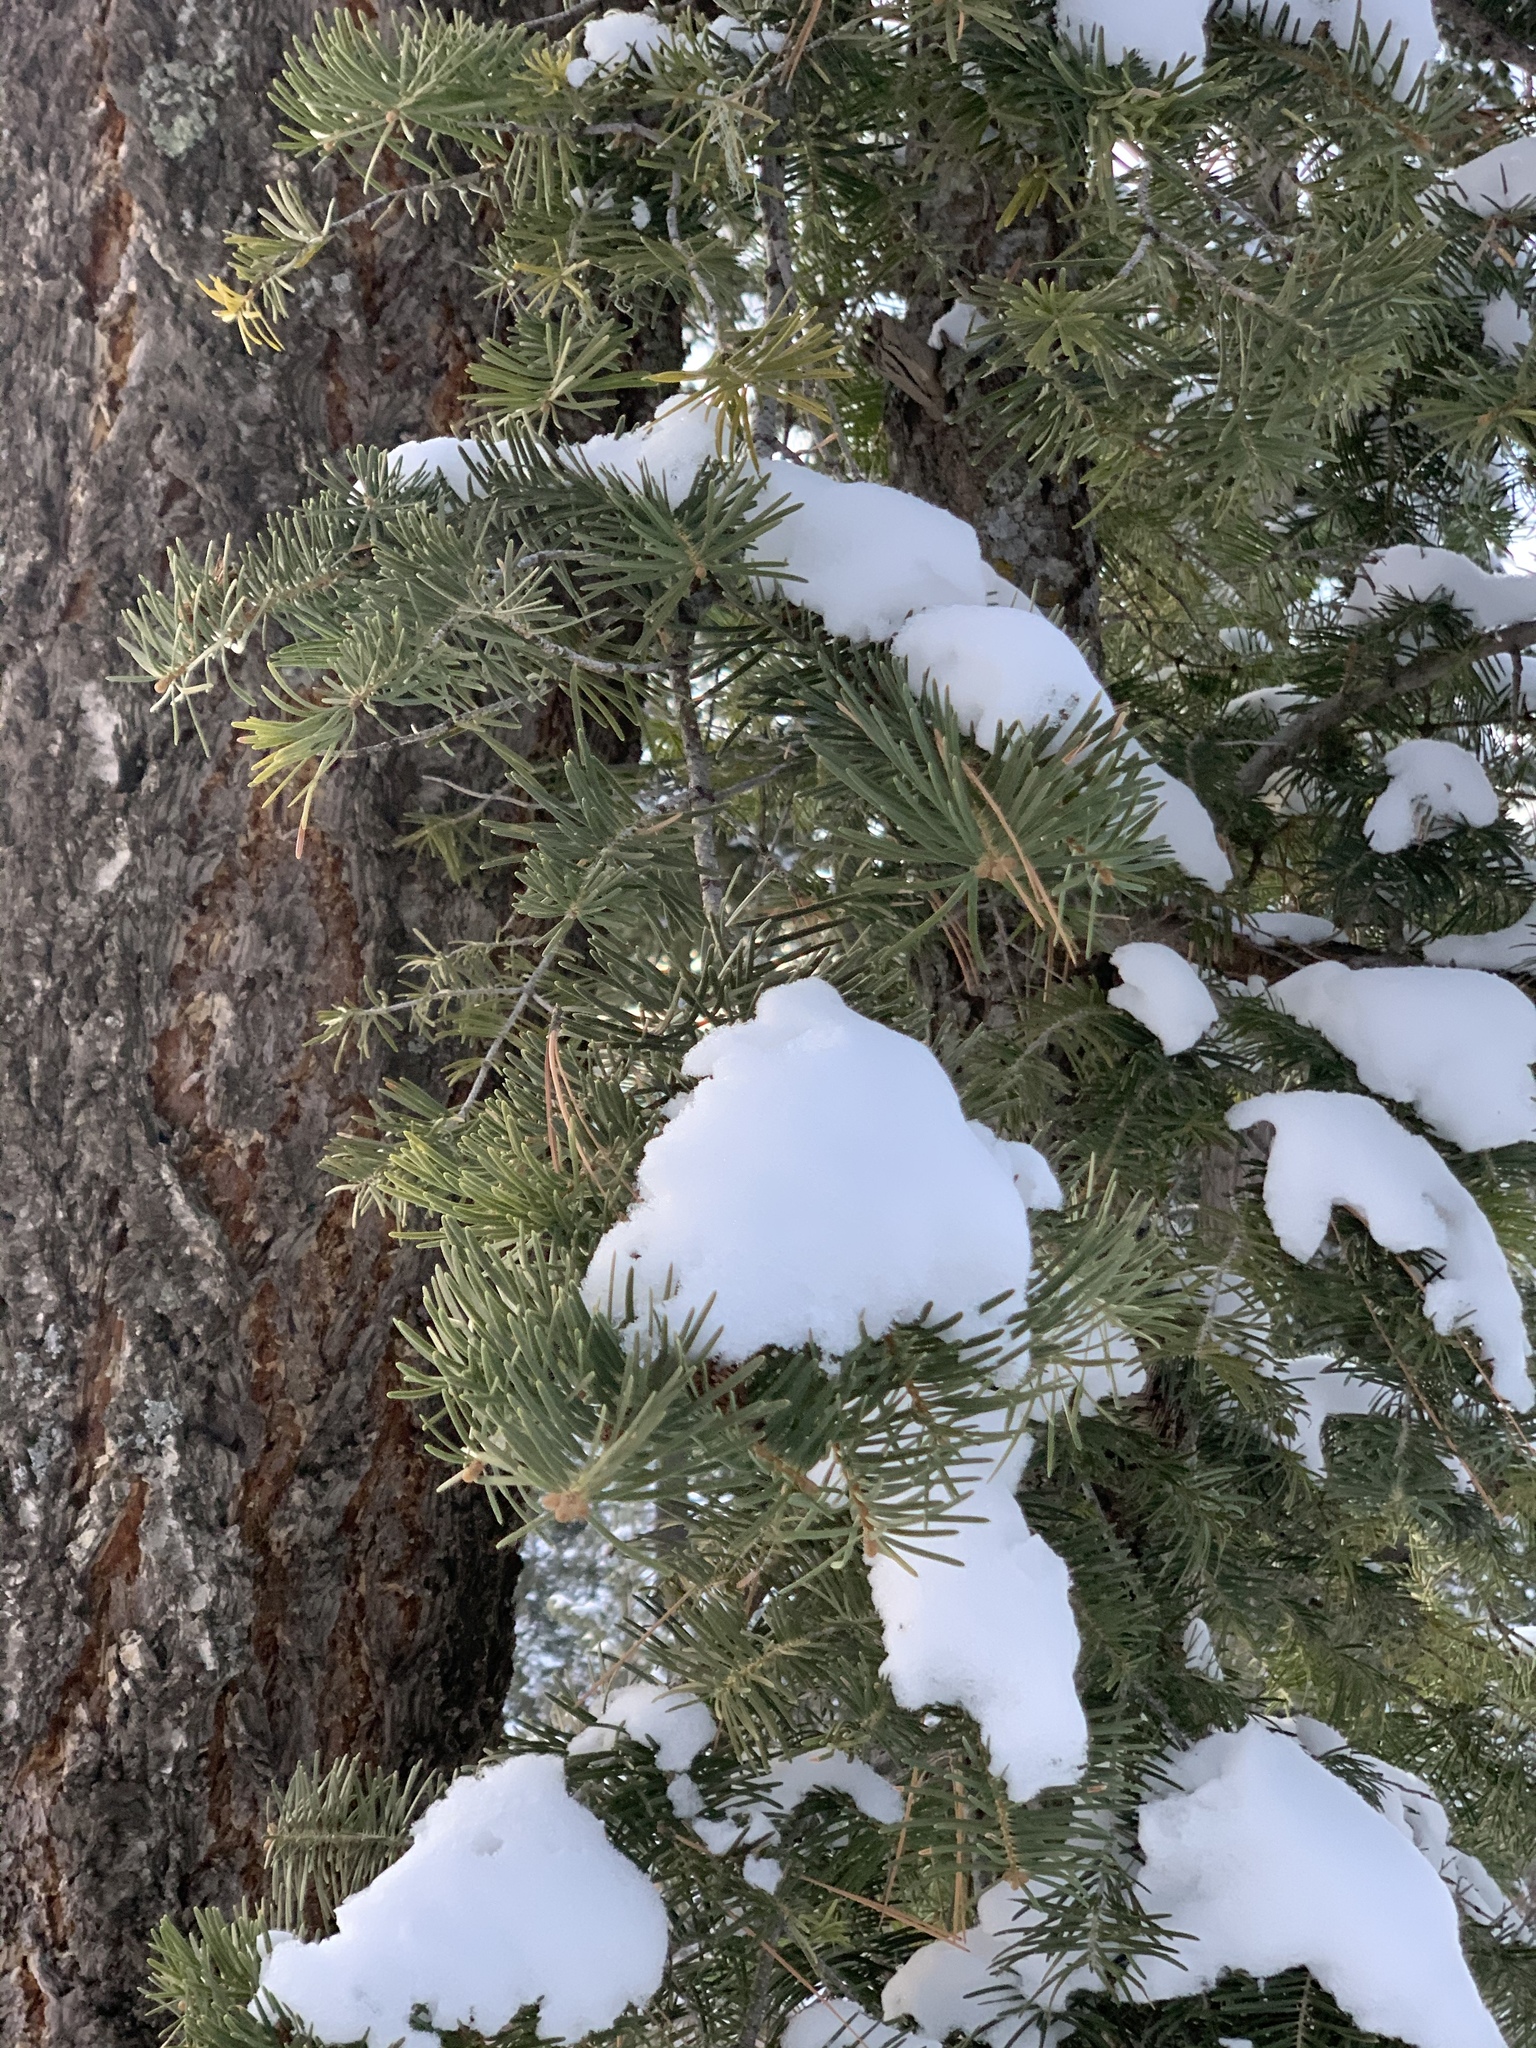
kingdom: Plantae
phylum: Tracheophyta
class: Pinopsida
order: Pinales
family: Pinaceae
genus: Abies
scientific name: Abies concolor
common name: Colorado fir
